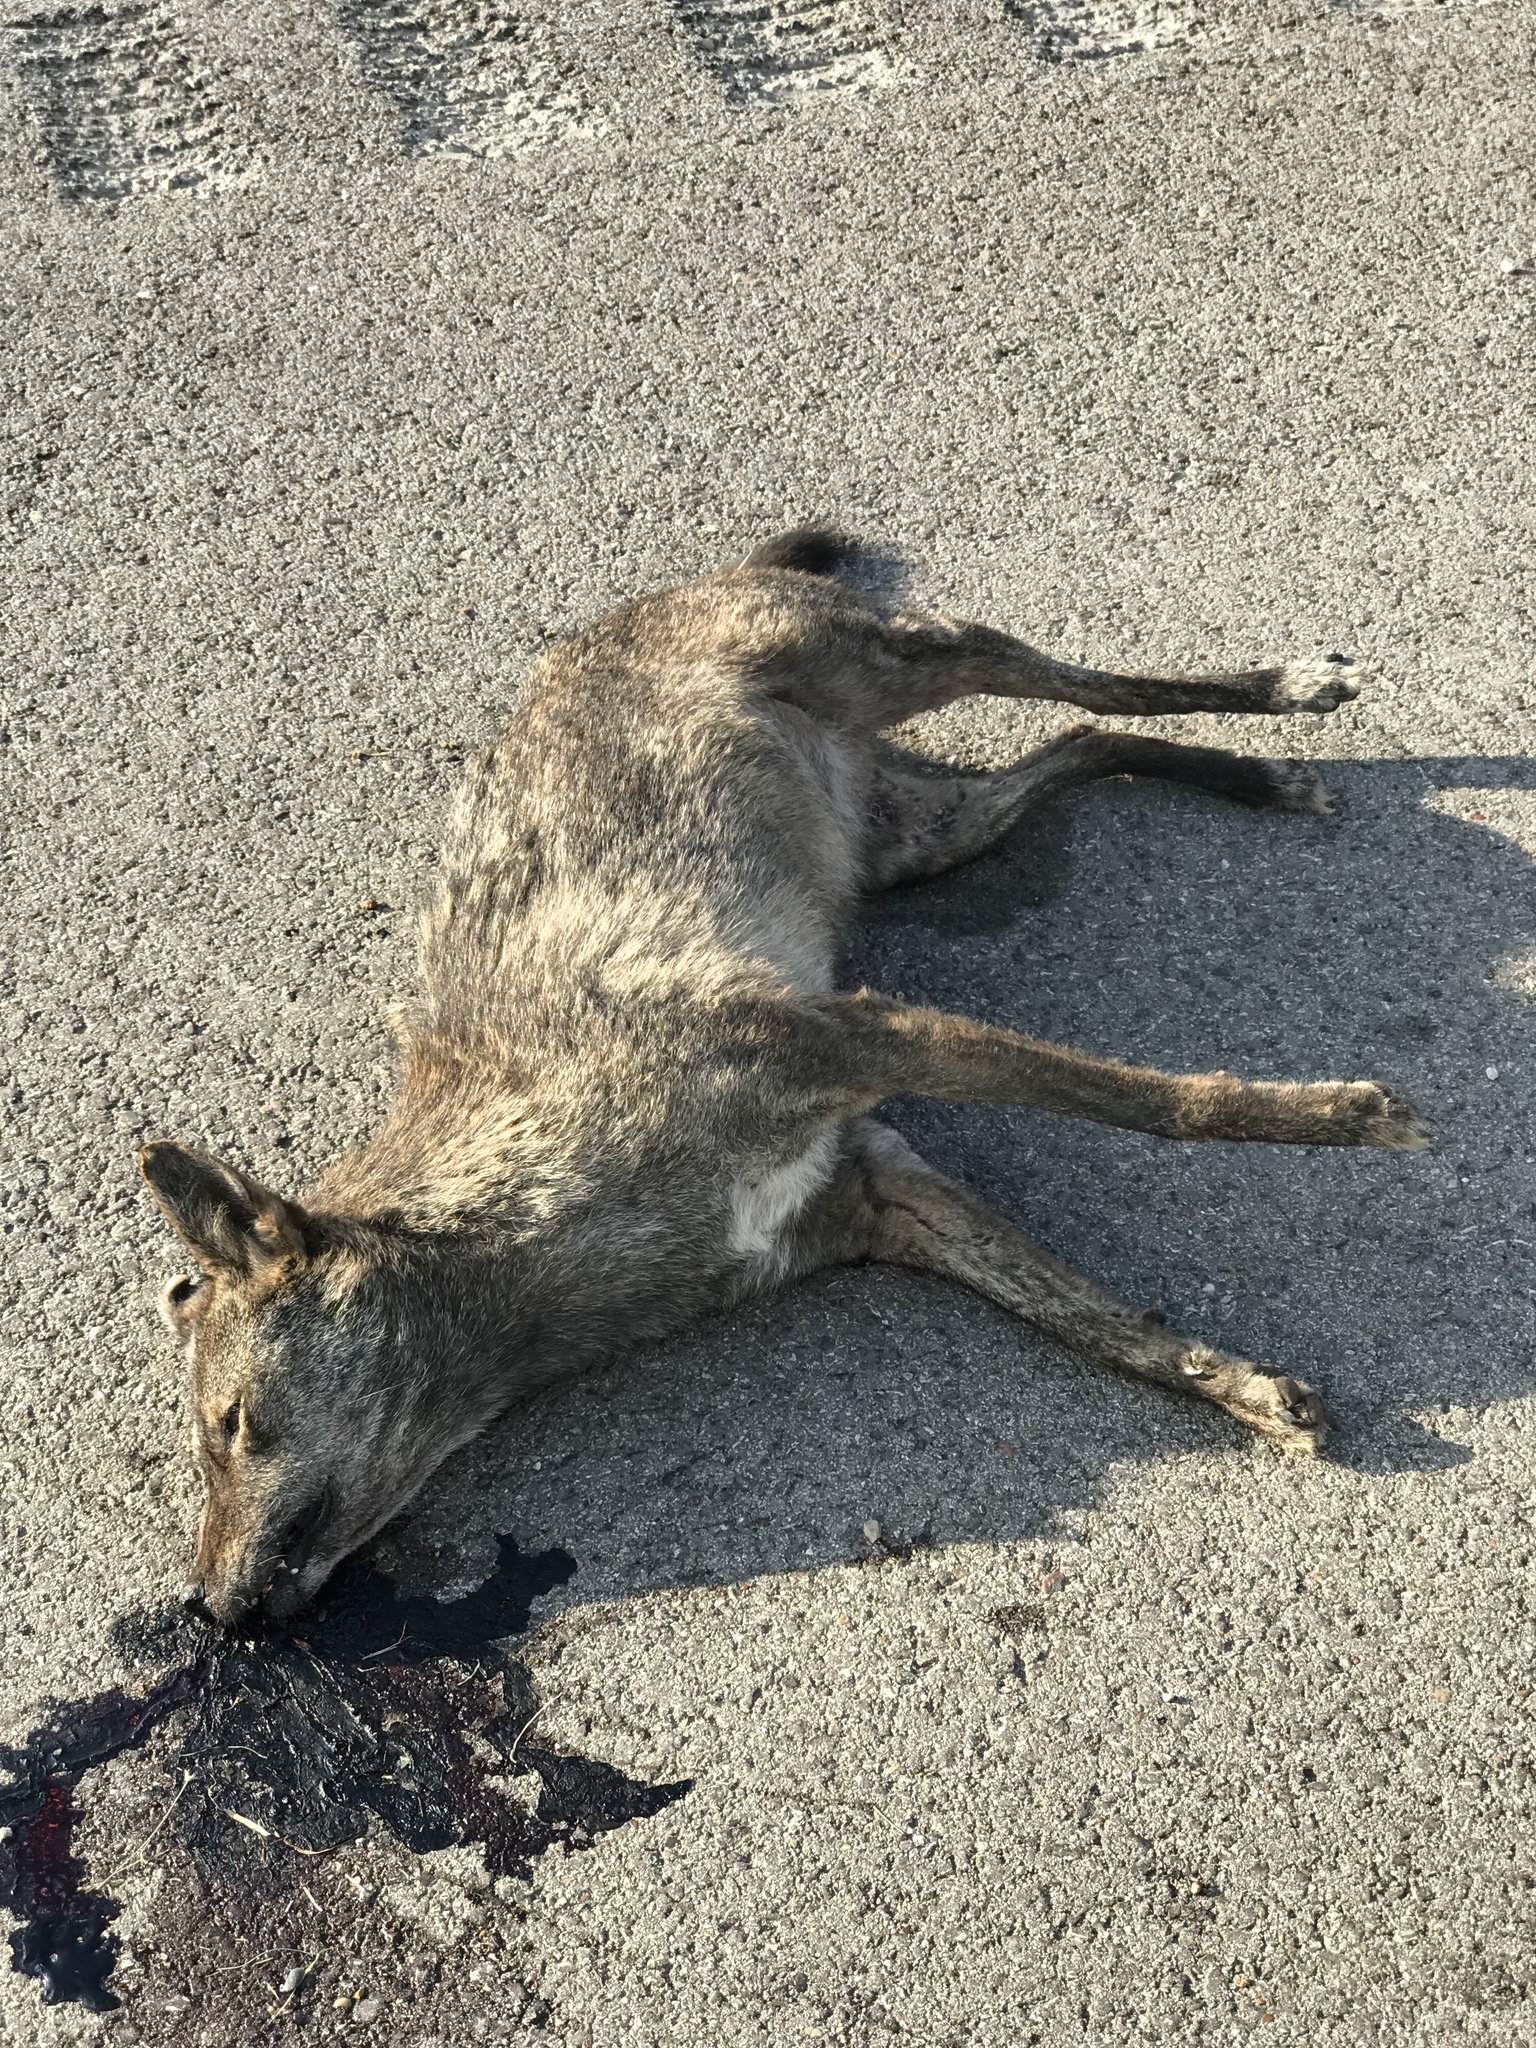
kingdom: Animalia
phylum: Chordata
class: Mammalia
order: Carnivora
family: Canidae
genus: Canis
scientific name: Canis latrans
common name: Coyote
